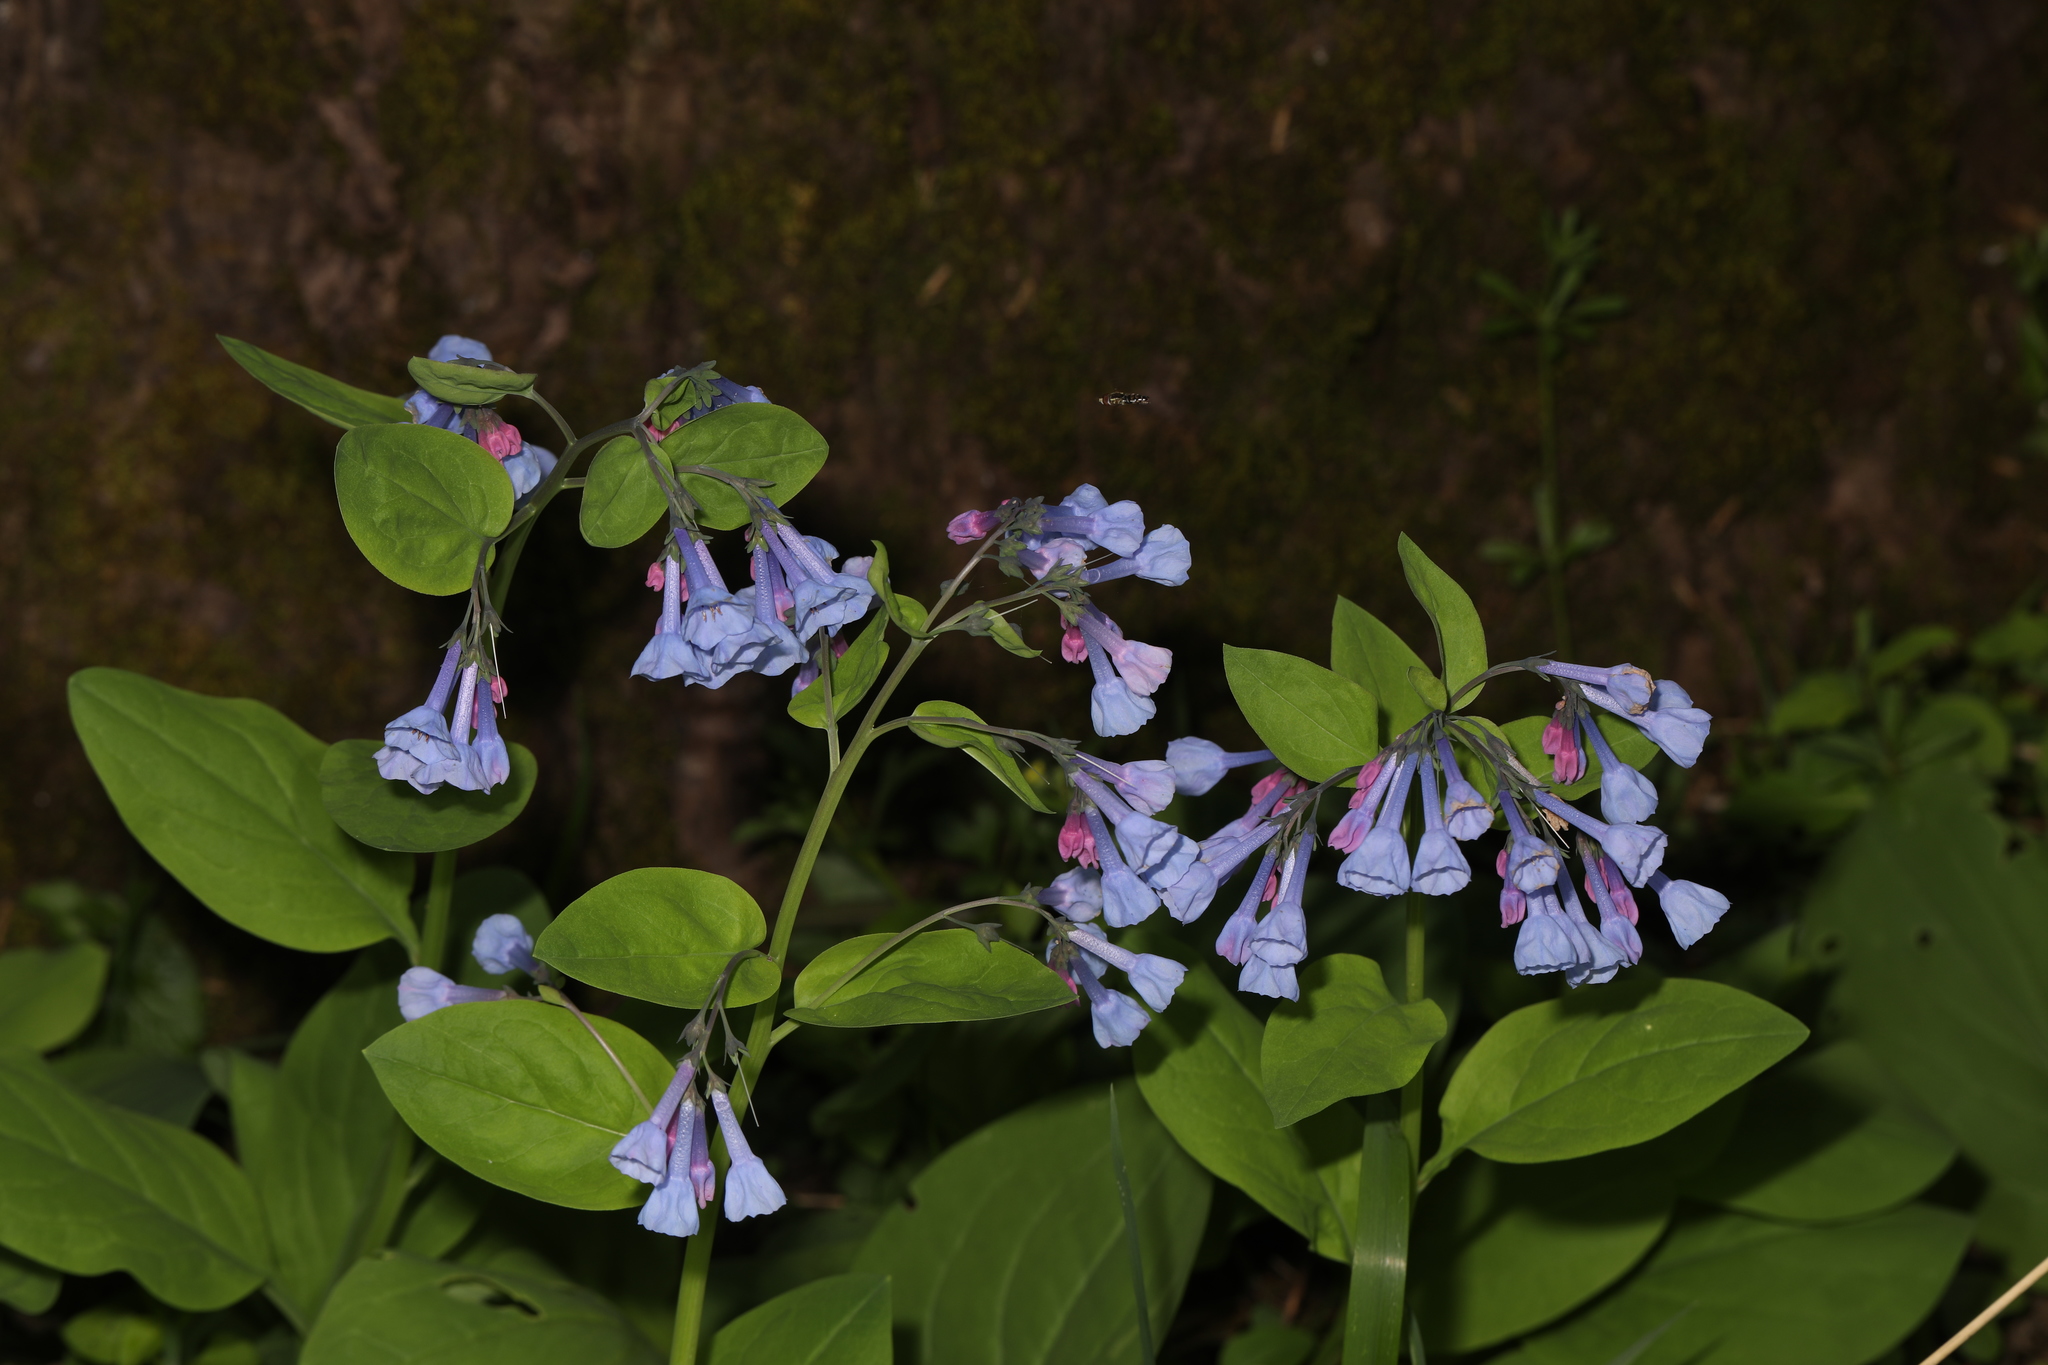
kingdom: Plantae
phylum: Tracheophyta
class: Magnoliopsida
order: Boraginales
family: Boraginaceae
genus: Mertensia
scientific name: Mertensia virginica
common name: Virginia bluebells
